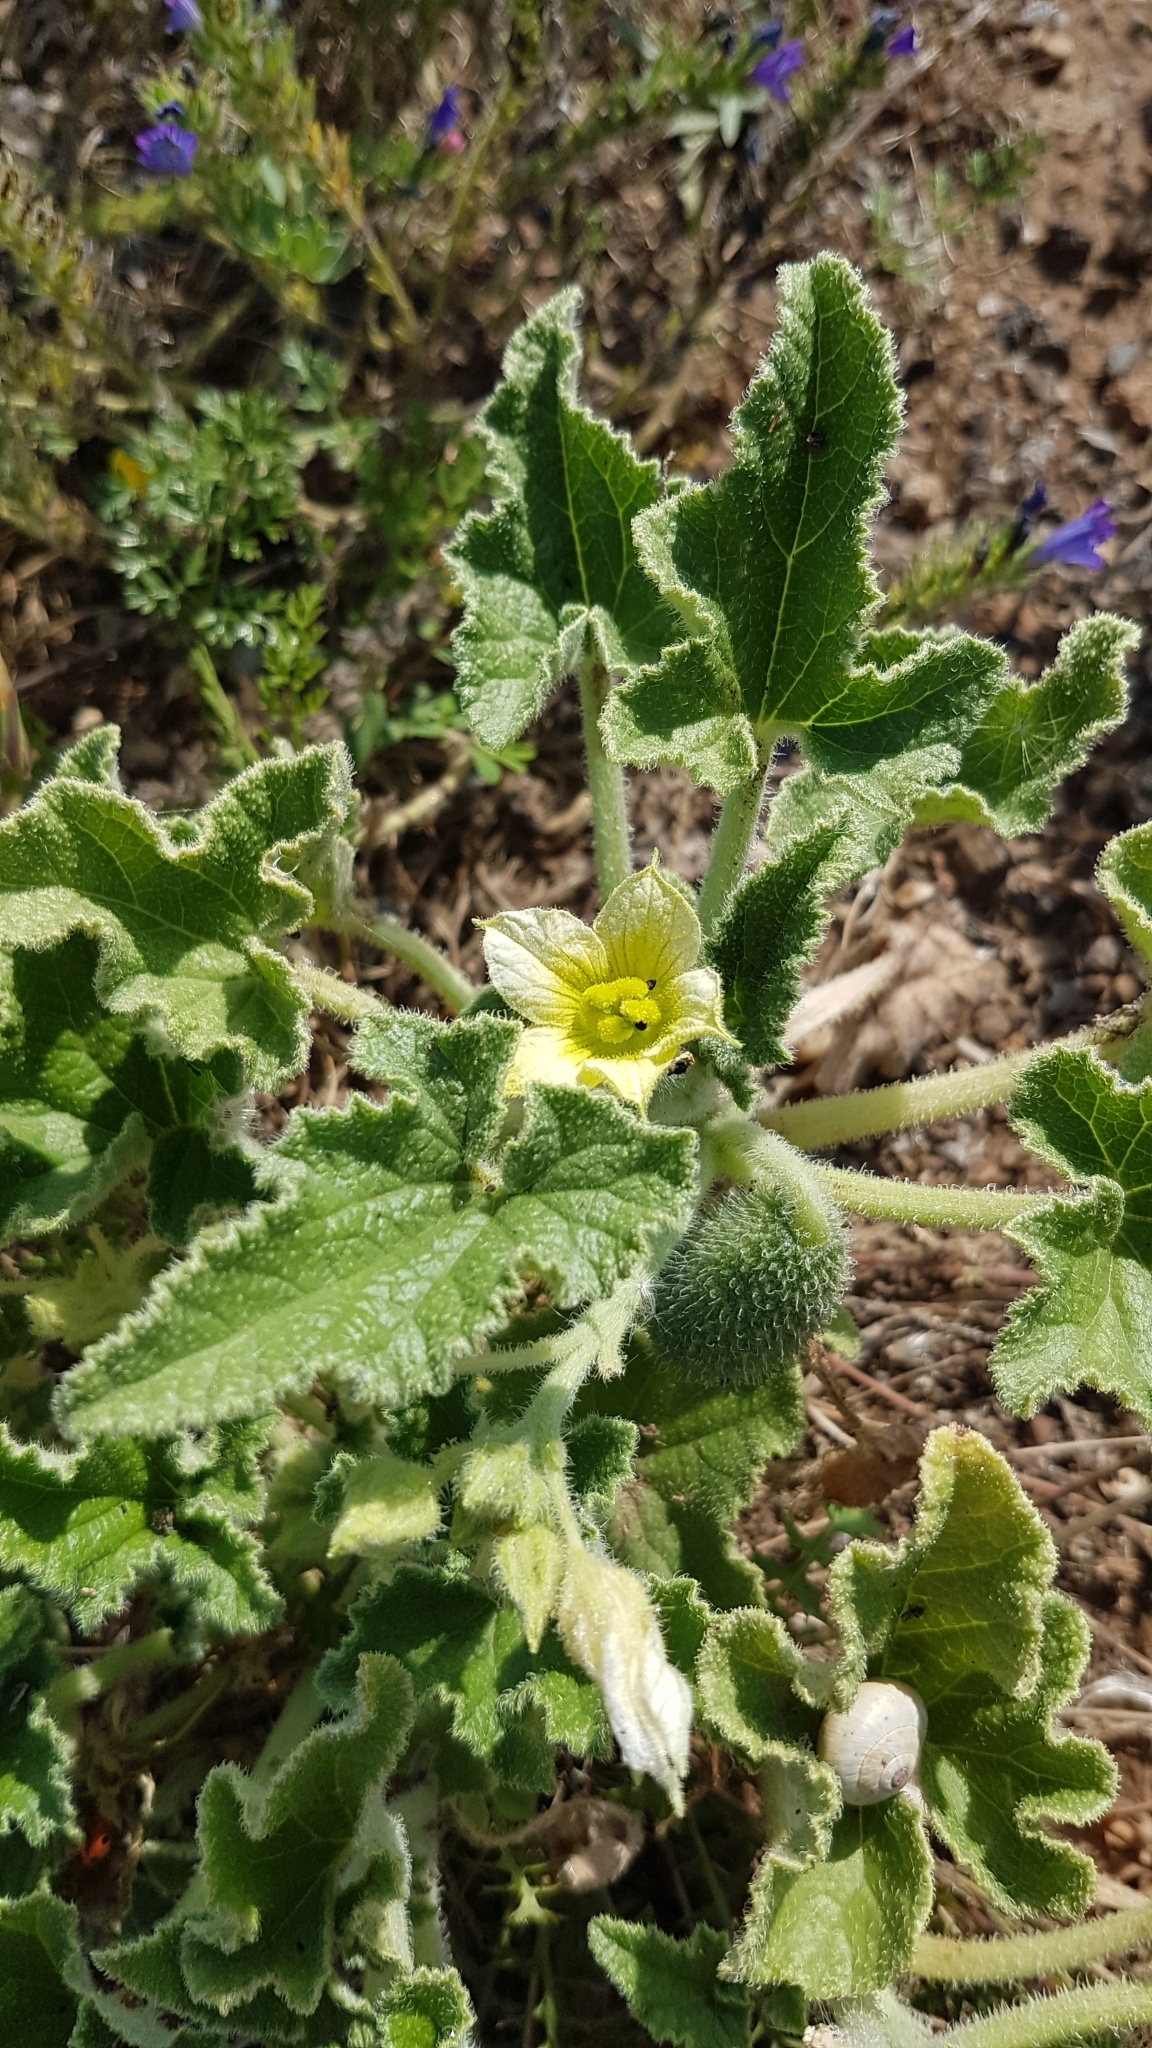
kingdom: Plantae
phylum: Tracheophyta
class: Magnoliopsida
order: Cucurbitales
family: Cucurbitaceae
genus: Ecballium
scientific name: Ecballium elaterium
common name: Squirting cucumber
